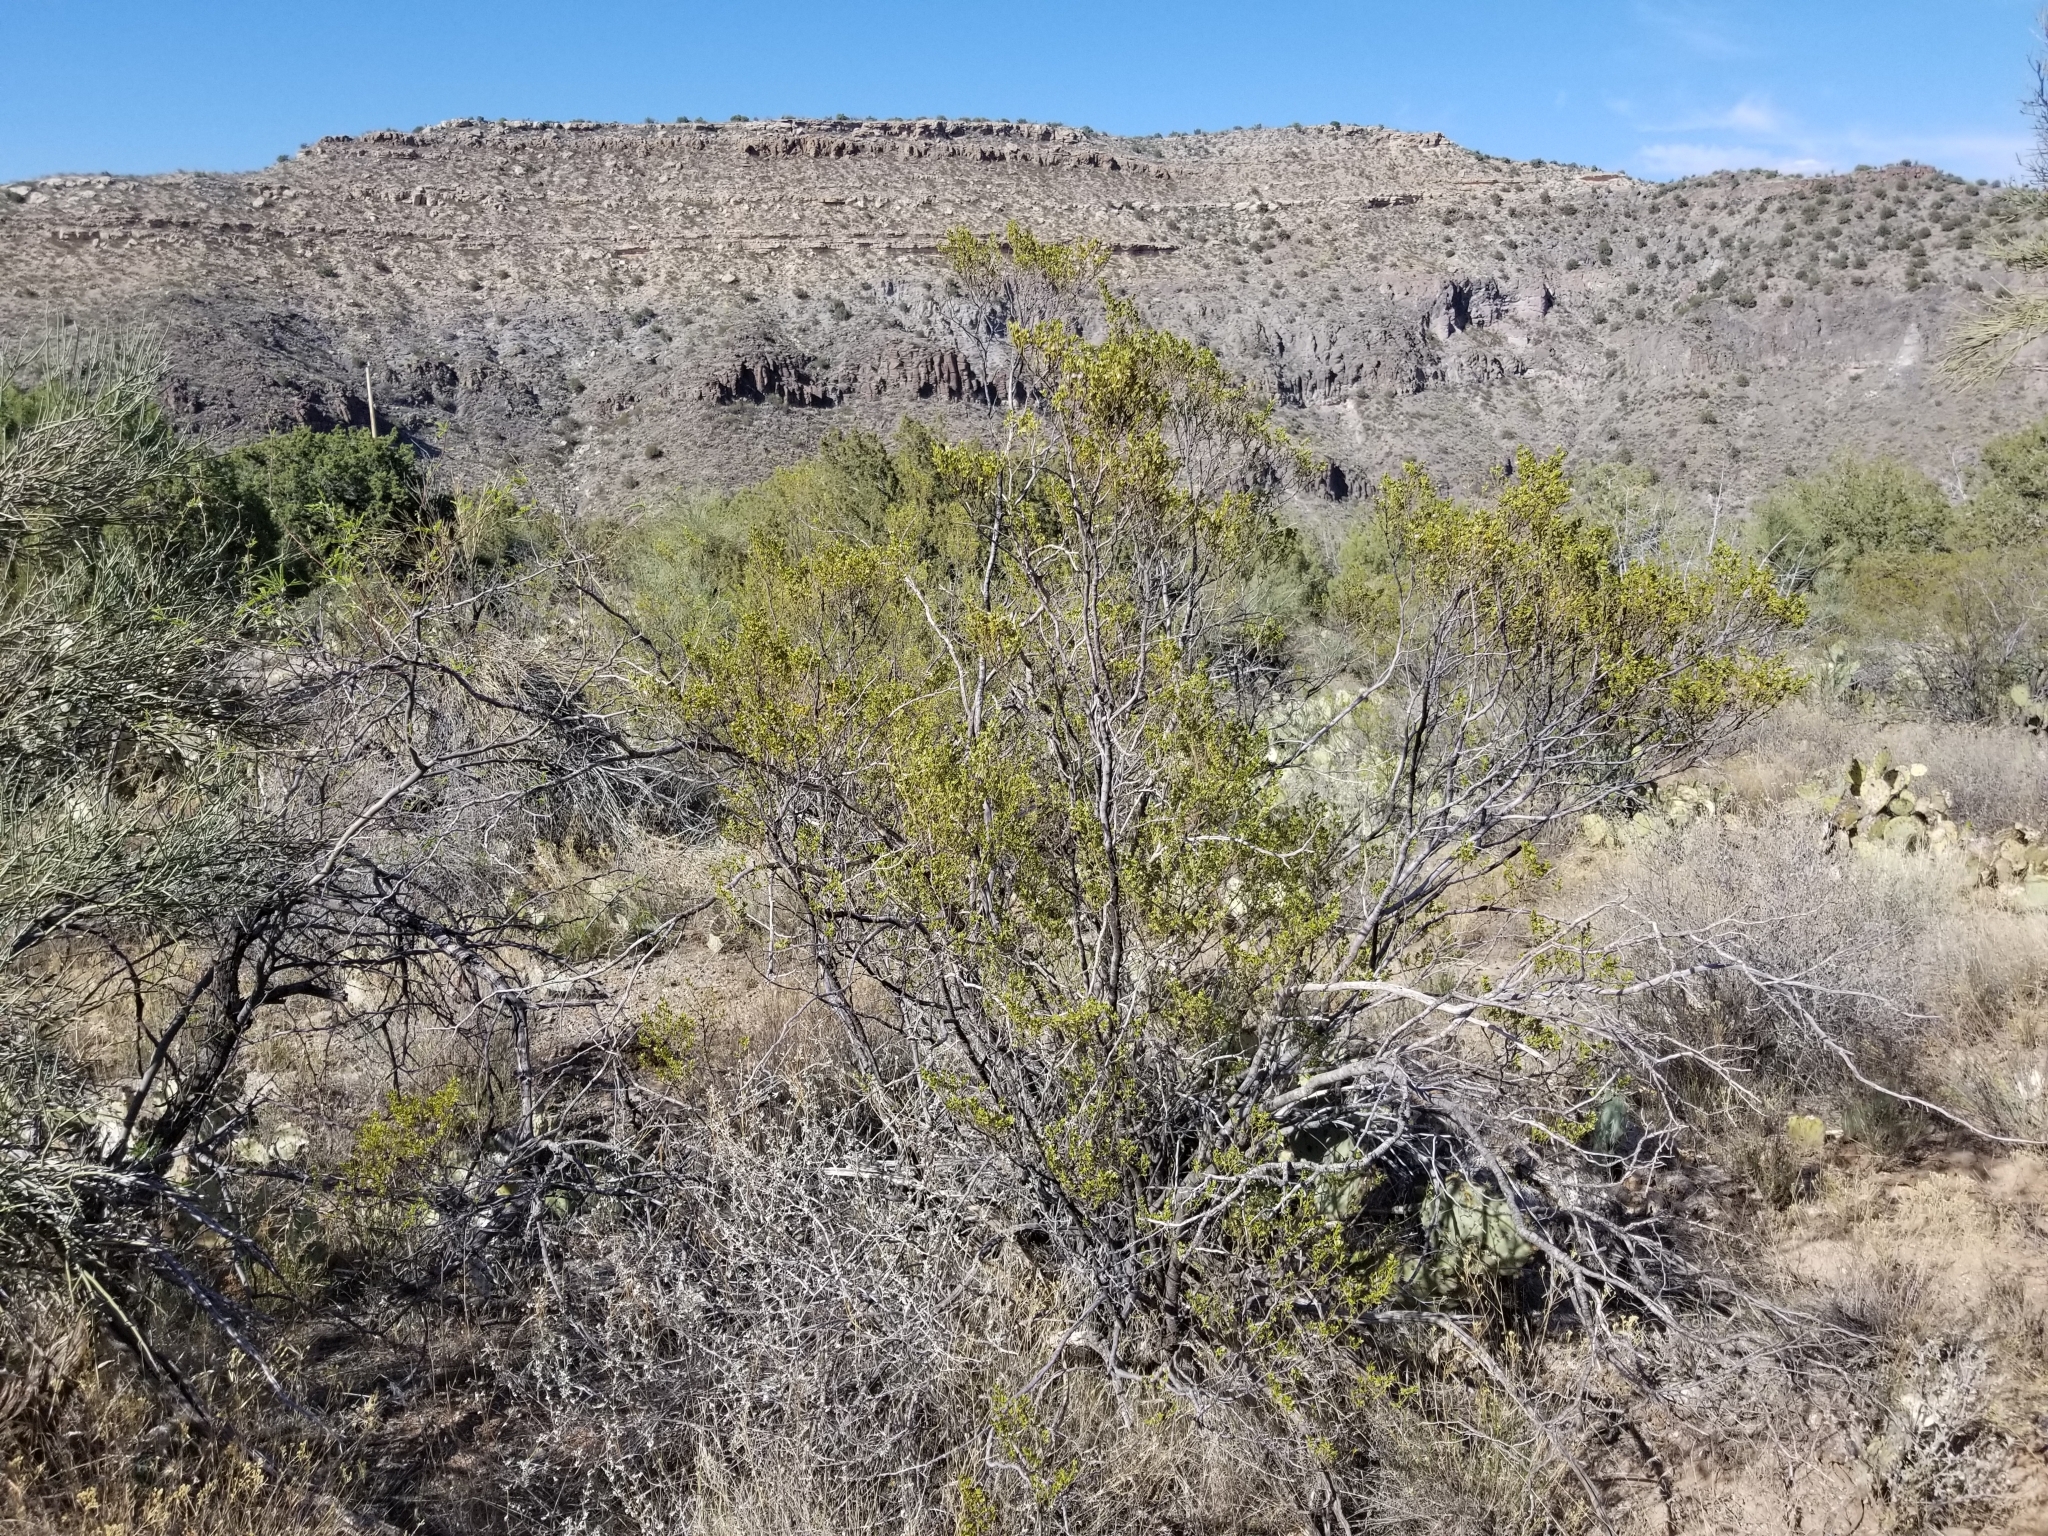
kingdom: Plantae
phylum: Tracheophyta
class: Magnoliopsida
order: Zygophyllales
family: Zygophyllaceae
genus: Larrea
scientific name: Larrea tridentata
